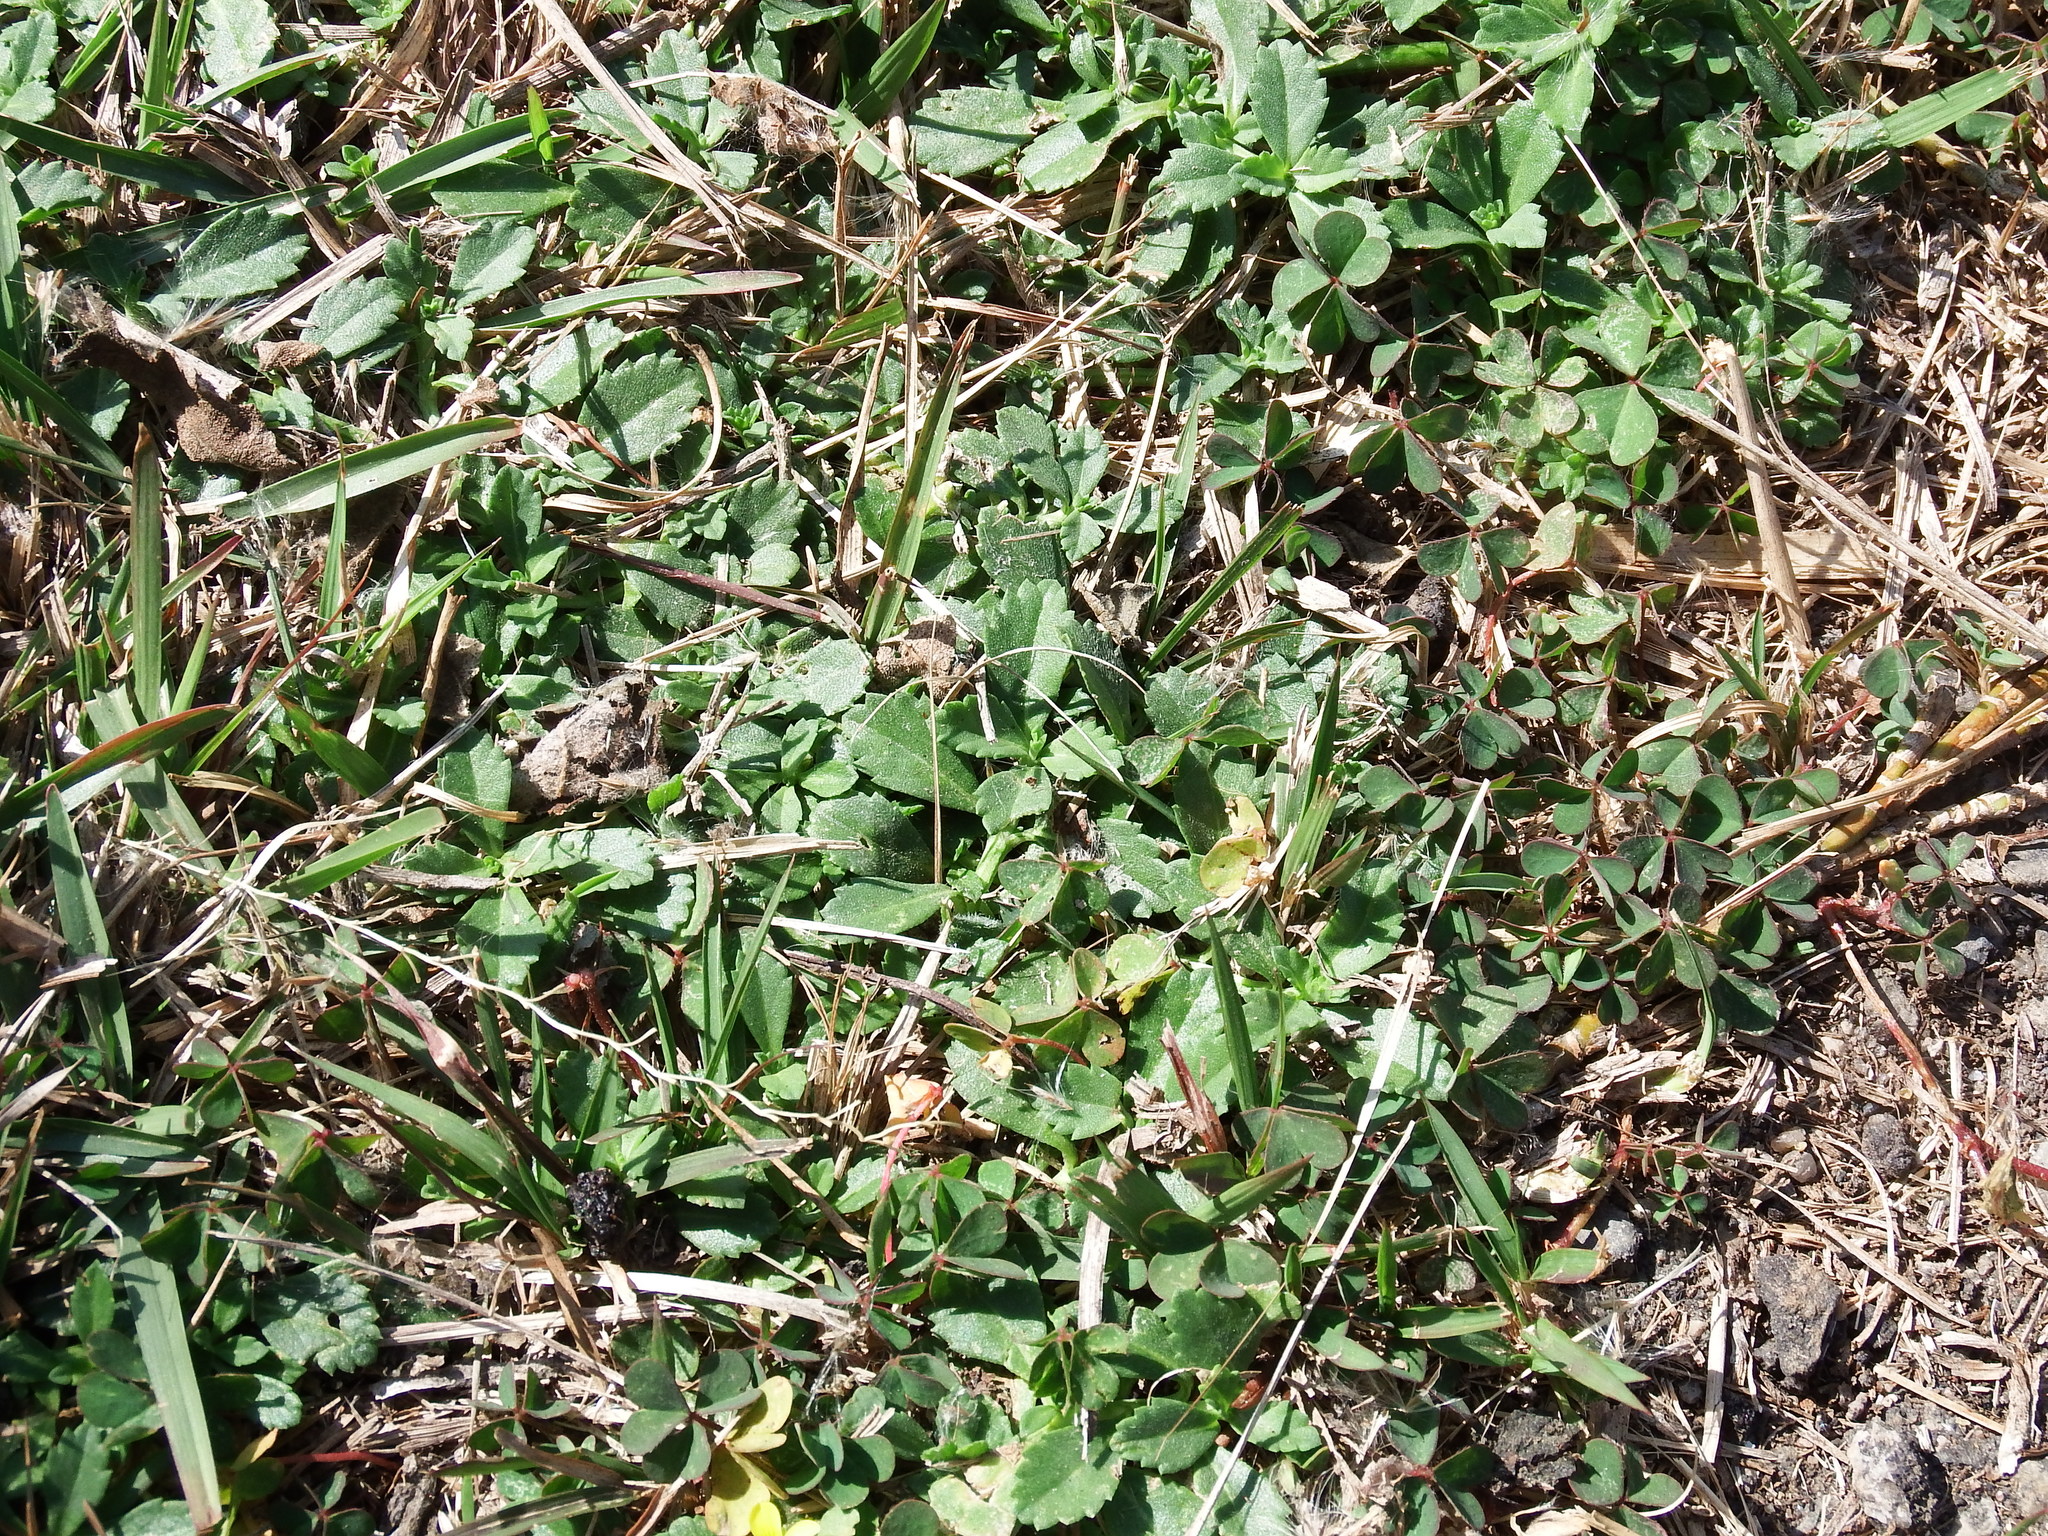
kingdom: Plantae
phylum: Tracheophyta
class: Magnoliopsida
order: Lamiales
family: Verbenaceae
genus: Phyla
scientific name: Phyla nodiflora
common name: Frogfruit
